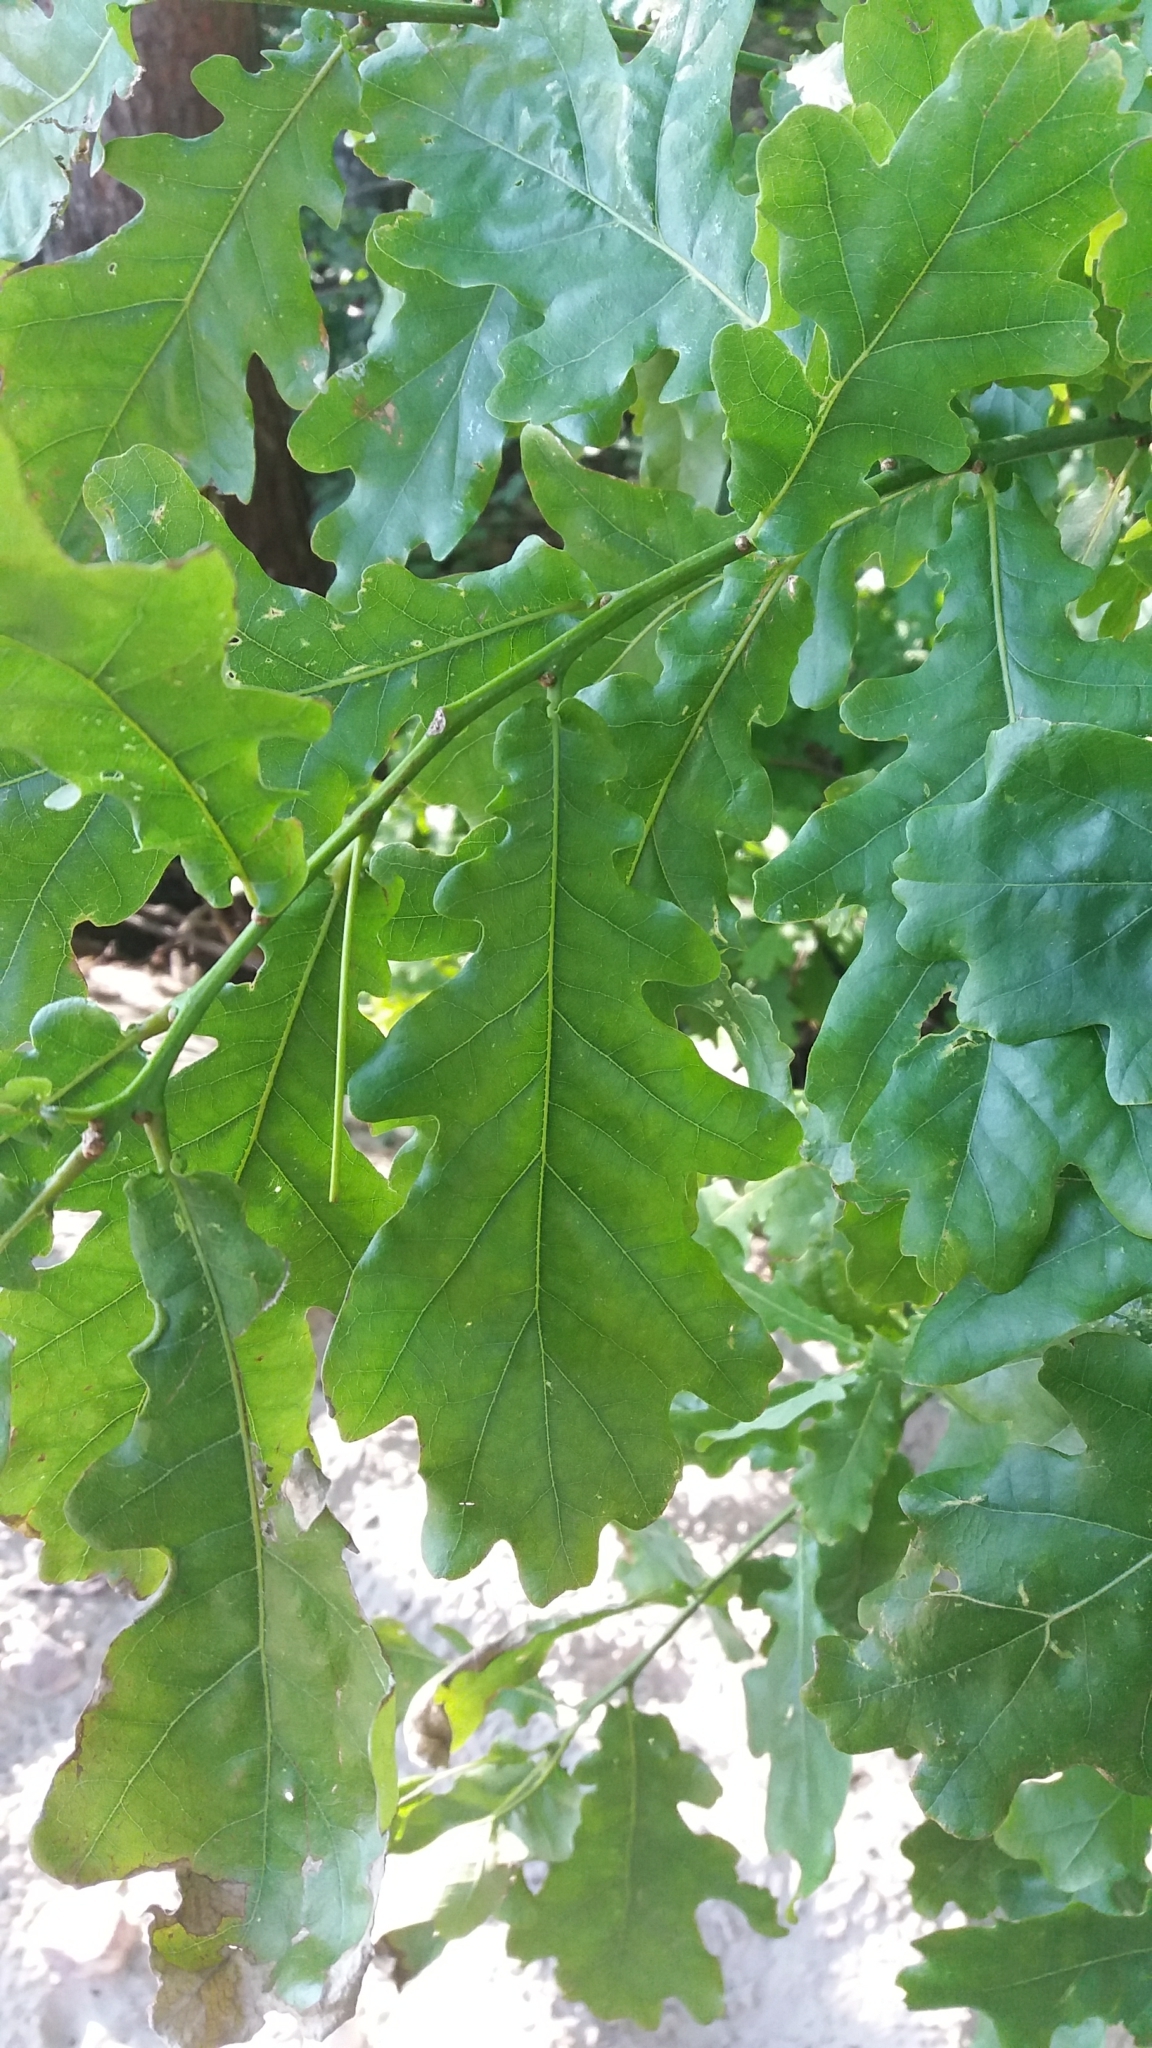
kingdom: Plantae
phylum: Tracheophyta
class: Magnoliopsida
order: Fagales
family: Fagaceae
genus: Quercus
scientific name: Quercus robur
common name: Pedunculate oak
